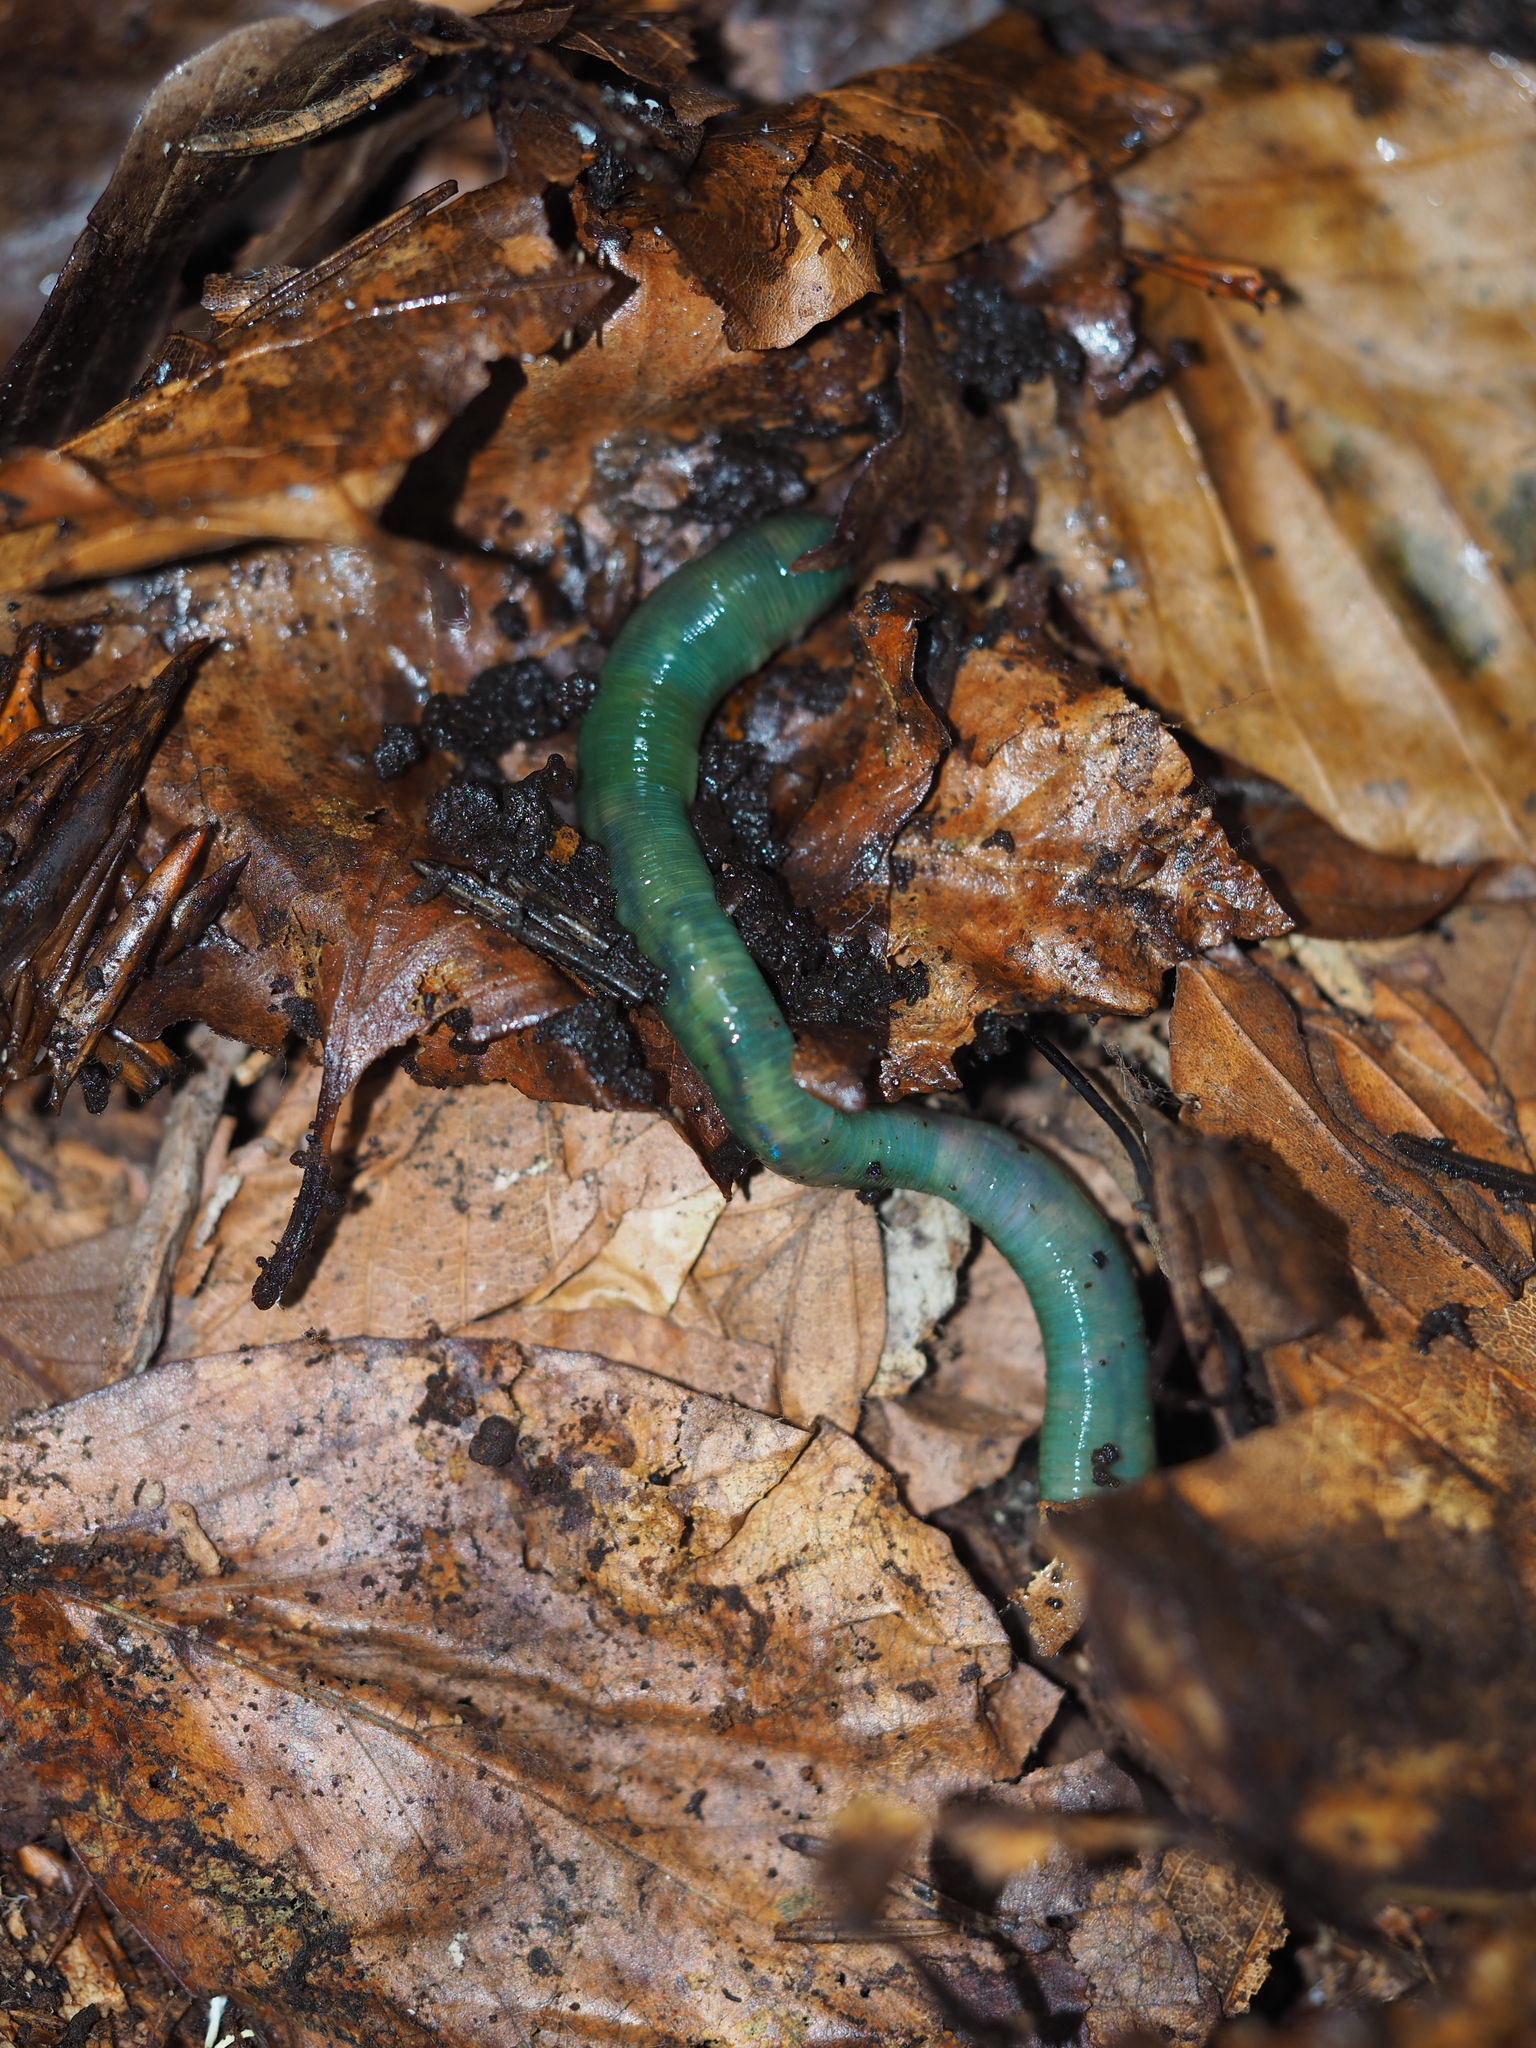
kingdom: Animalia
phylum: Annelida
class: Clitellata
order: Crassiclitellata
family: Lumbricidae
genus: Aporrectodea
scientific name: Aporrectodea smaragdina
